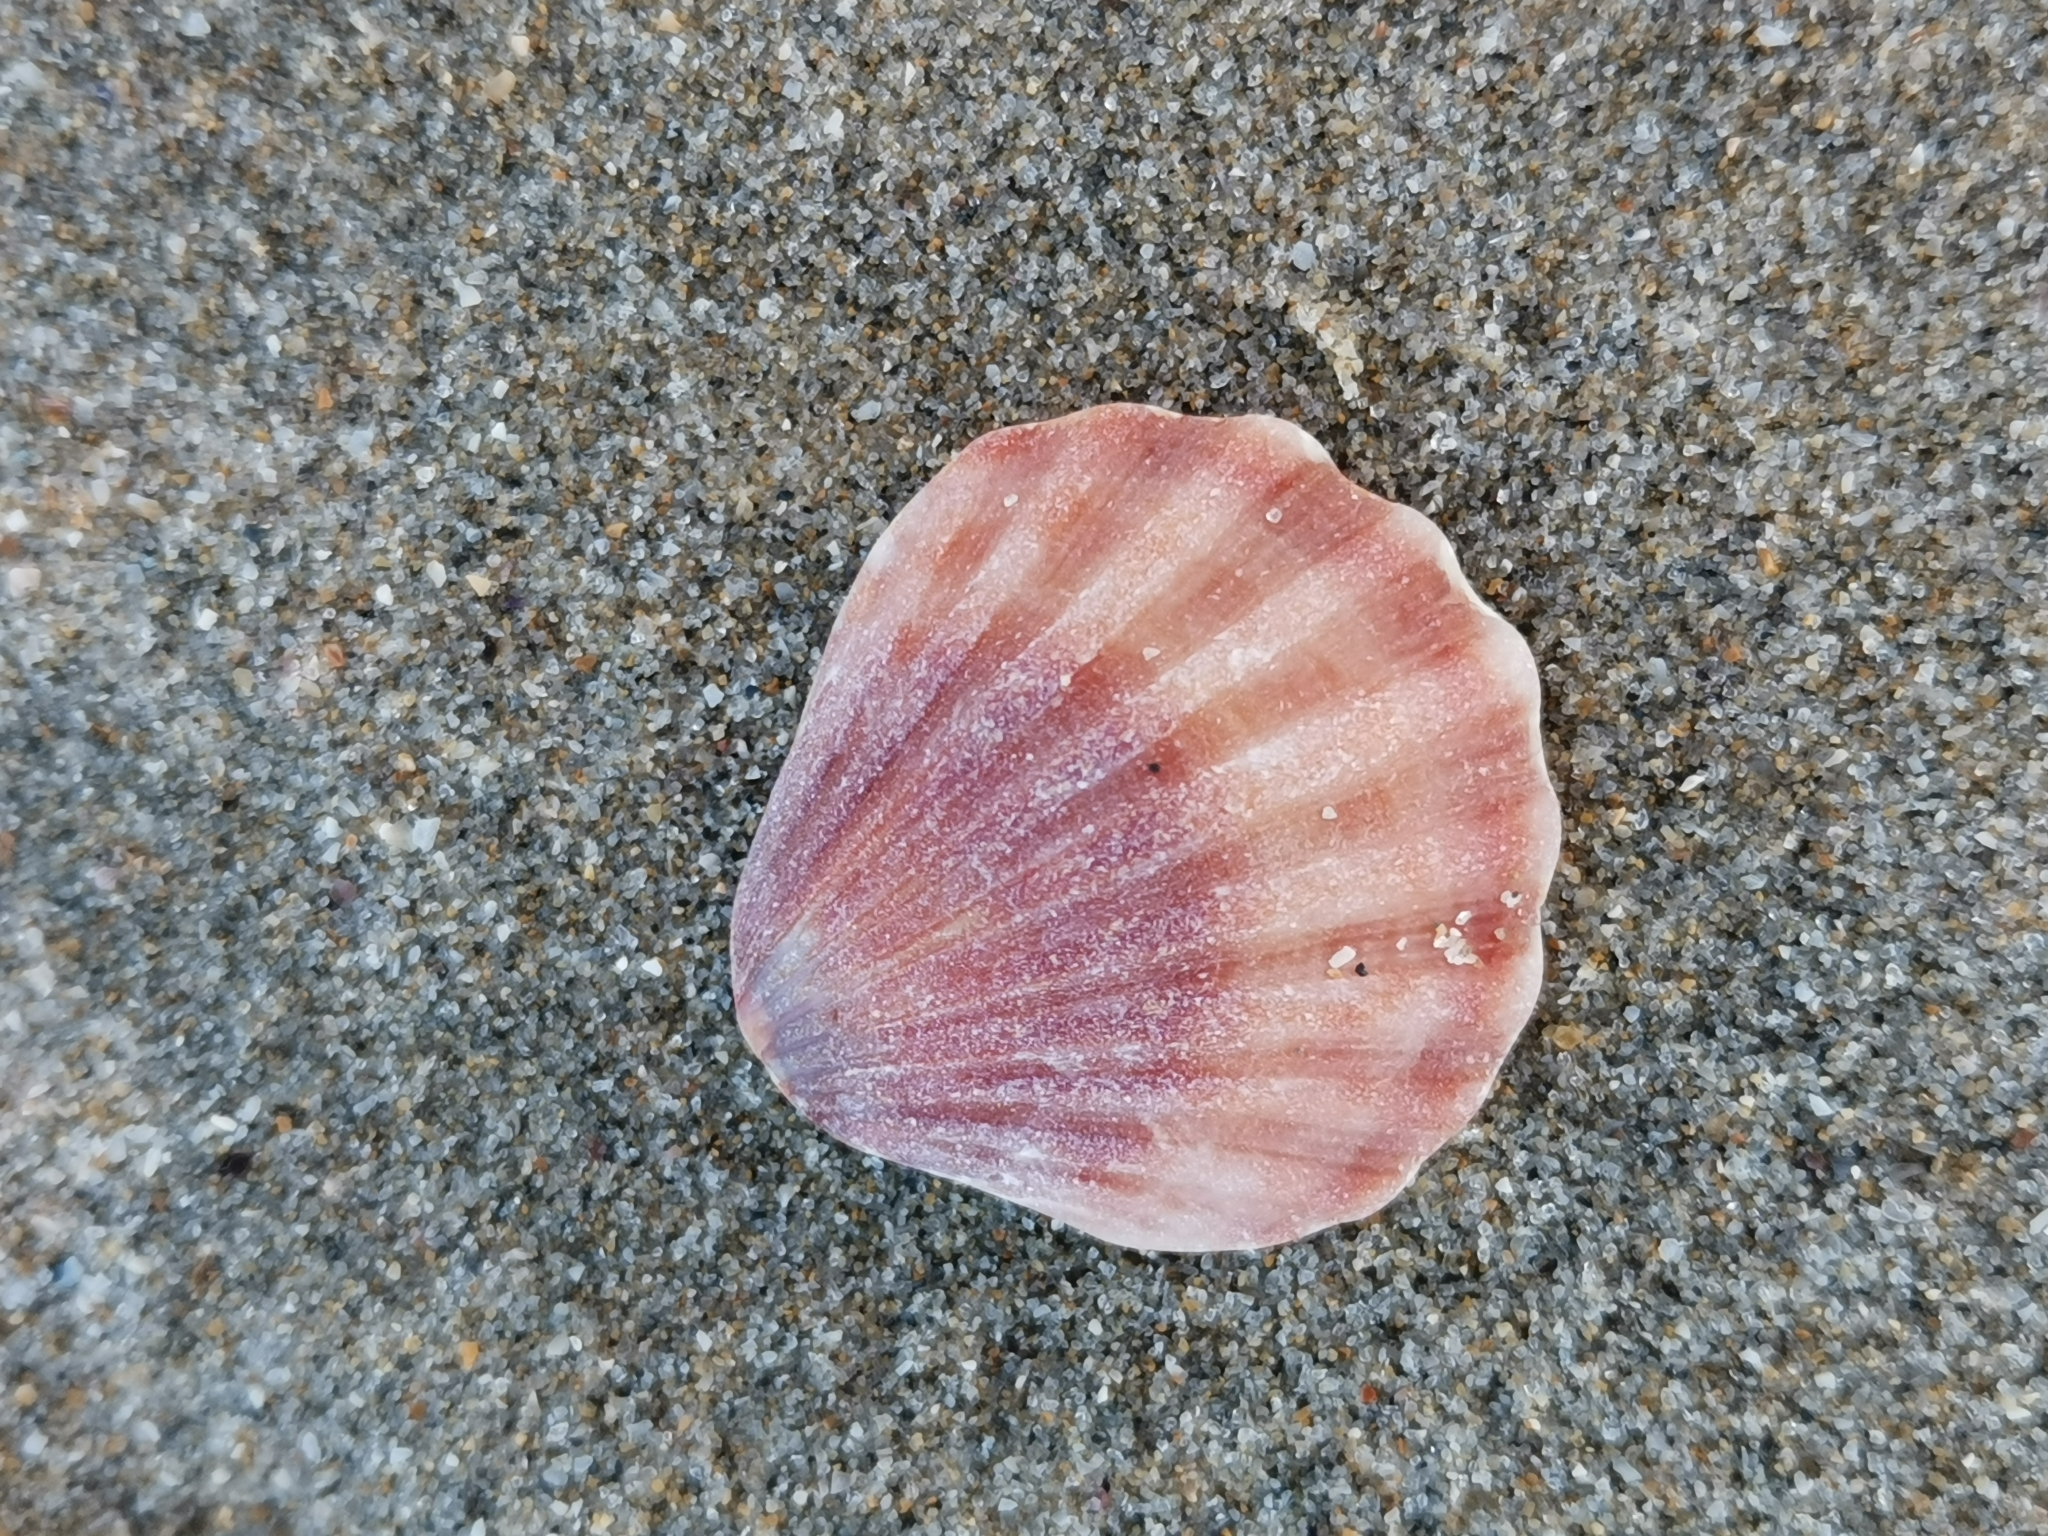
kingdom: Animalia
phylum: Mollusca
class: Bivalvia
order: Pectinida
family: Pectinidae
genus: Flexopecten
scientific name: Flexopecten glaber
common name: Smooth scallop
